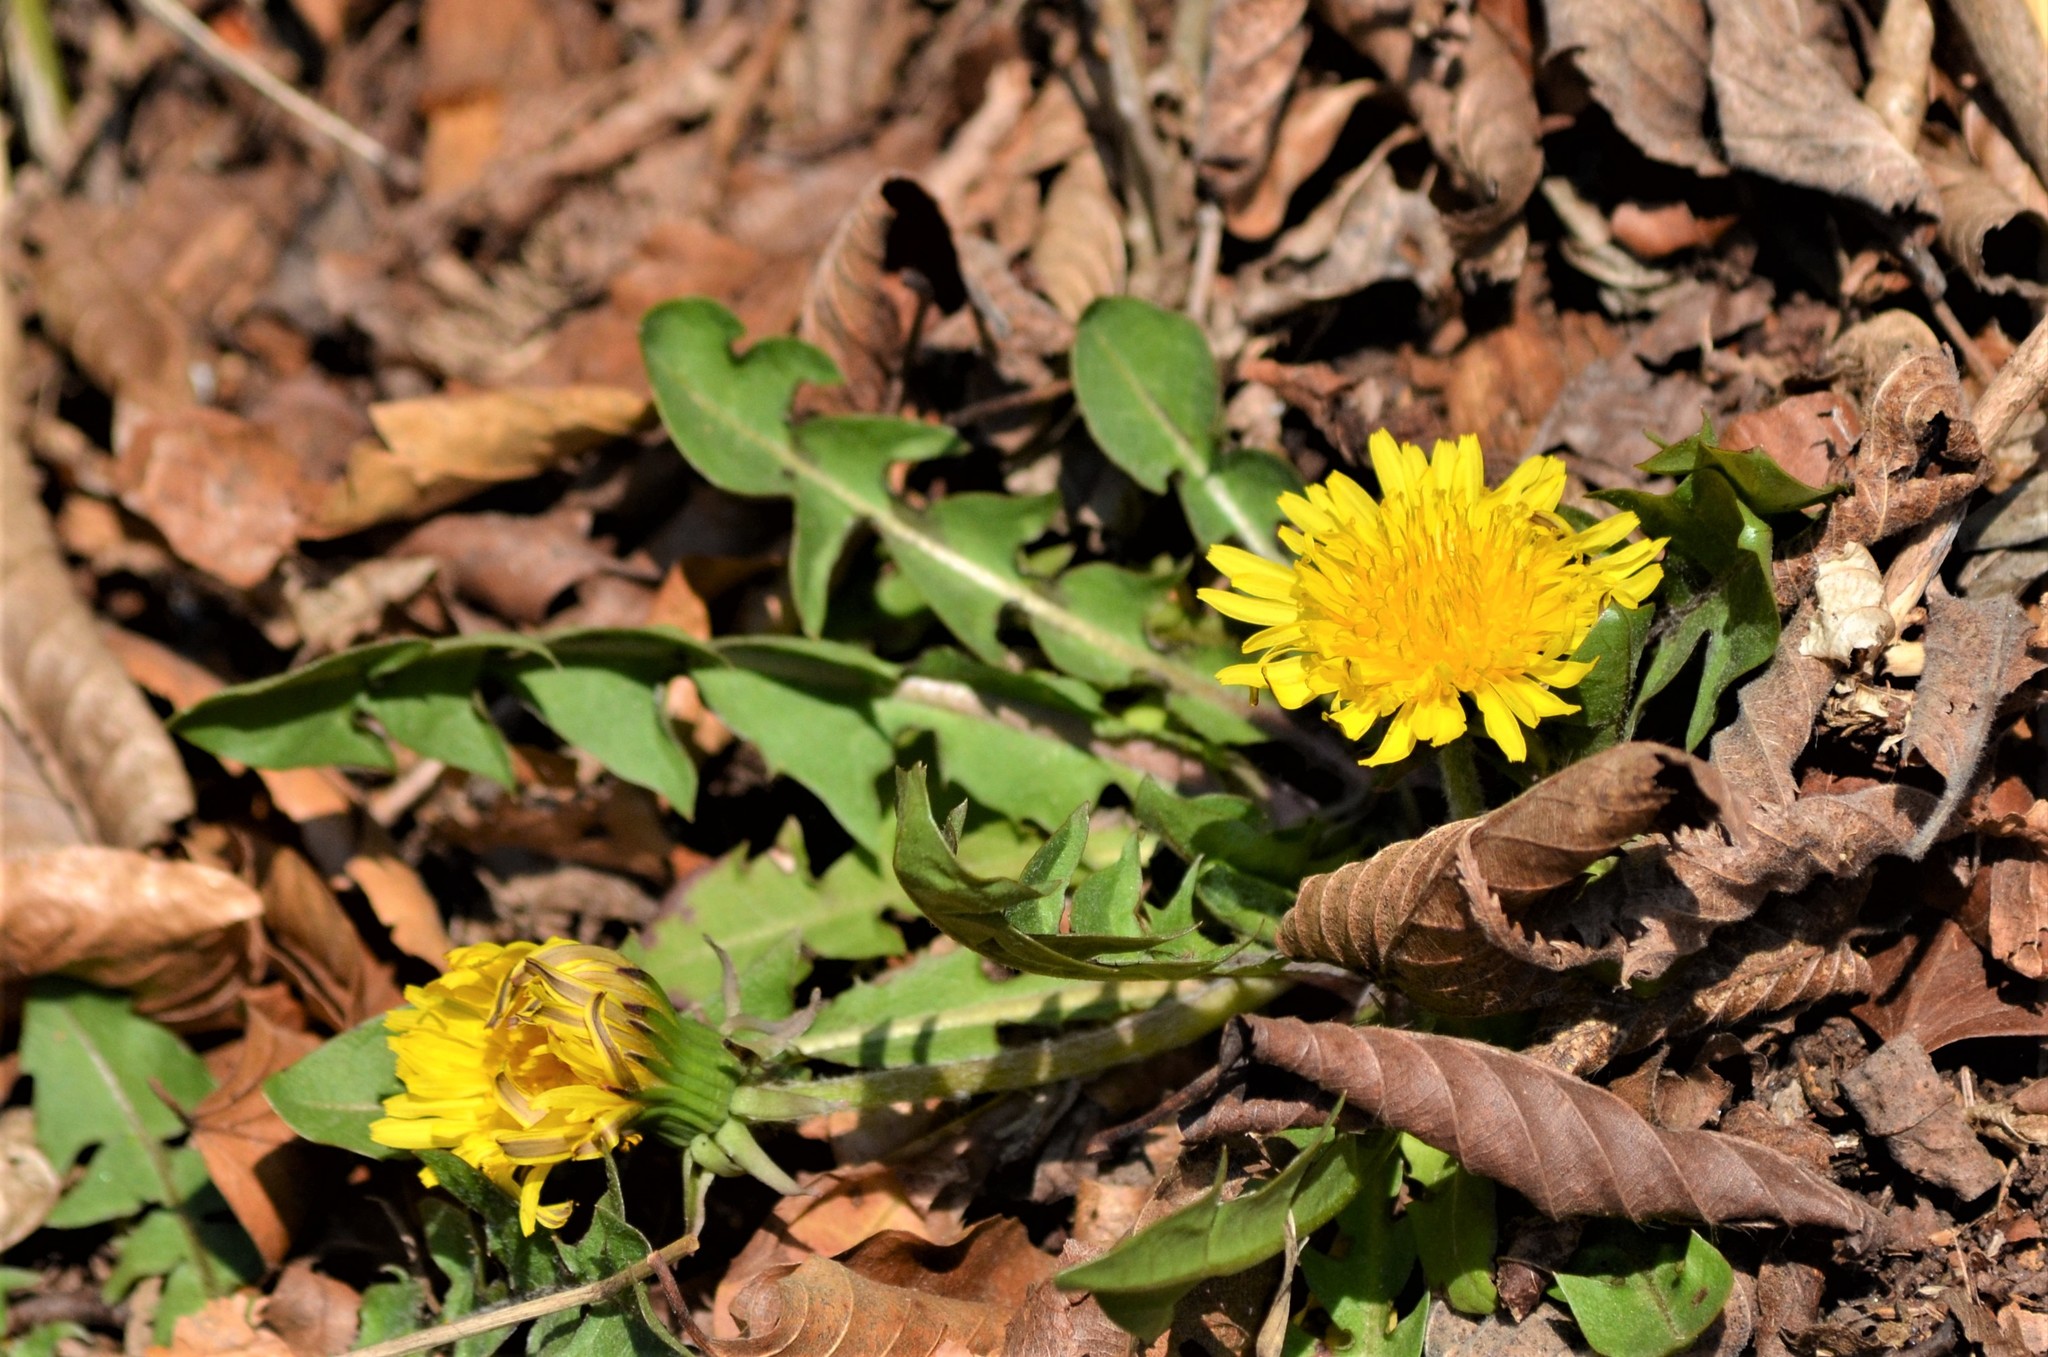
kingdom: Plantae
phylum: Tracheophyta
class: Magnoliopsida
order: Asterales
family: Asteraceae
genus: Taraxacum
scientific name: Taraxacum officinale
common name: Common dandelion
